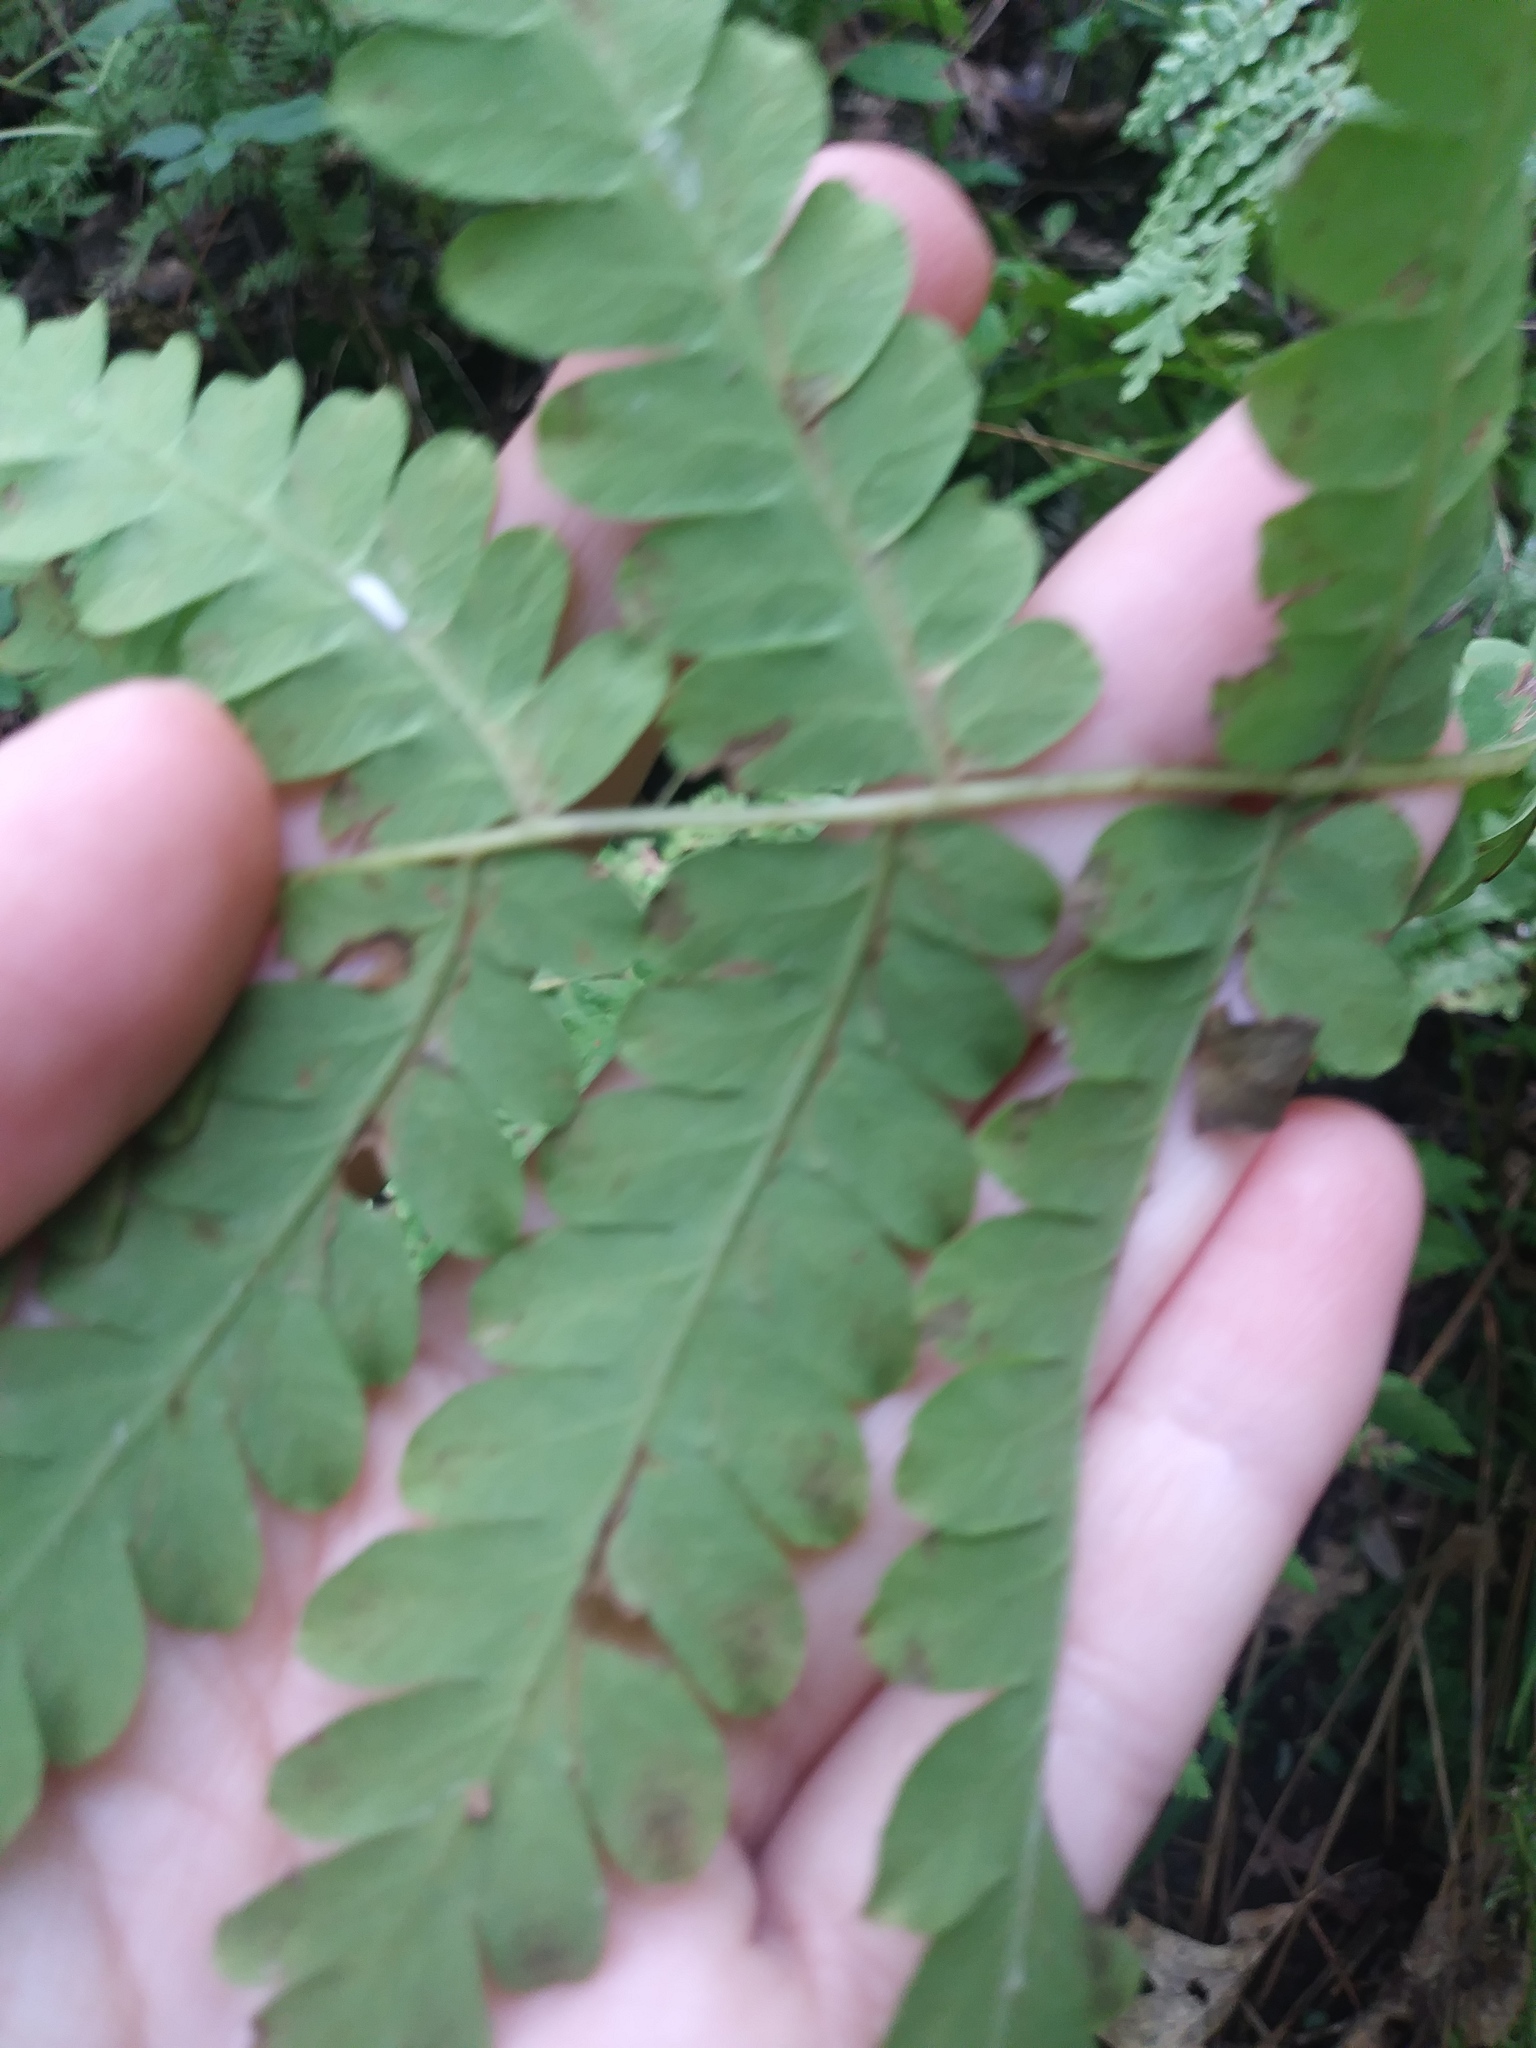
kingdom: Plantae
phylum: Tracheophyta
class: Polypodiopsida
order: Osmundales
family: Osmundaceae
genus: Claytosmunda
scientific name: Claytosmunda claytoniana
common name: Clayton's fern
